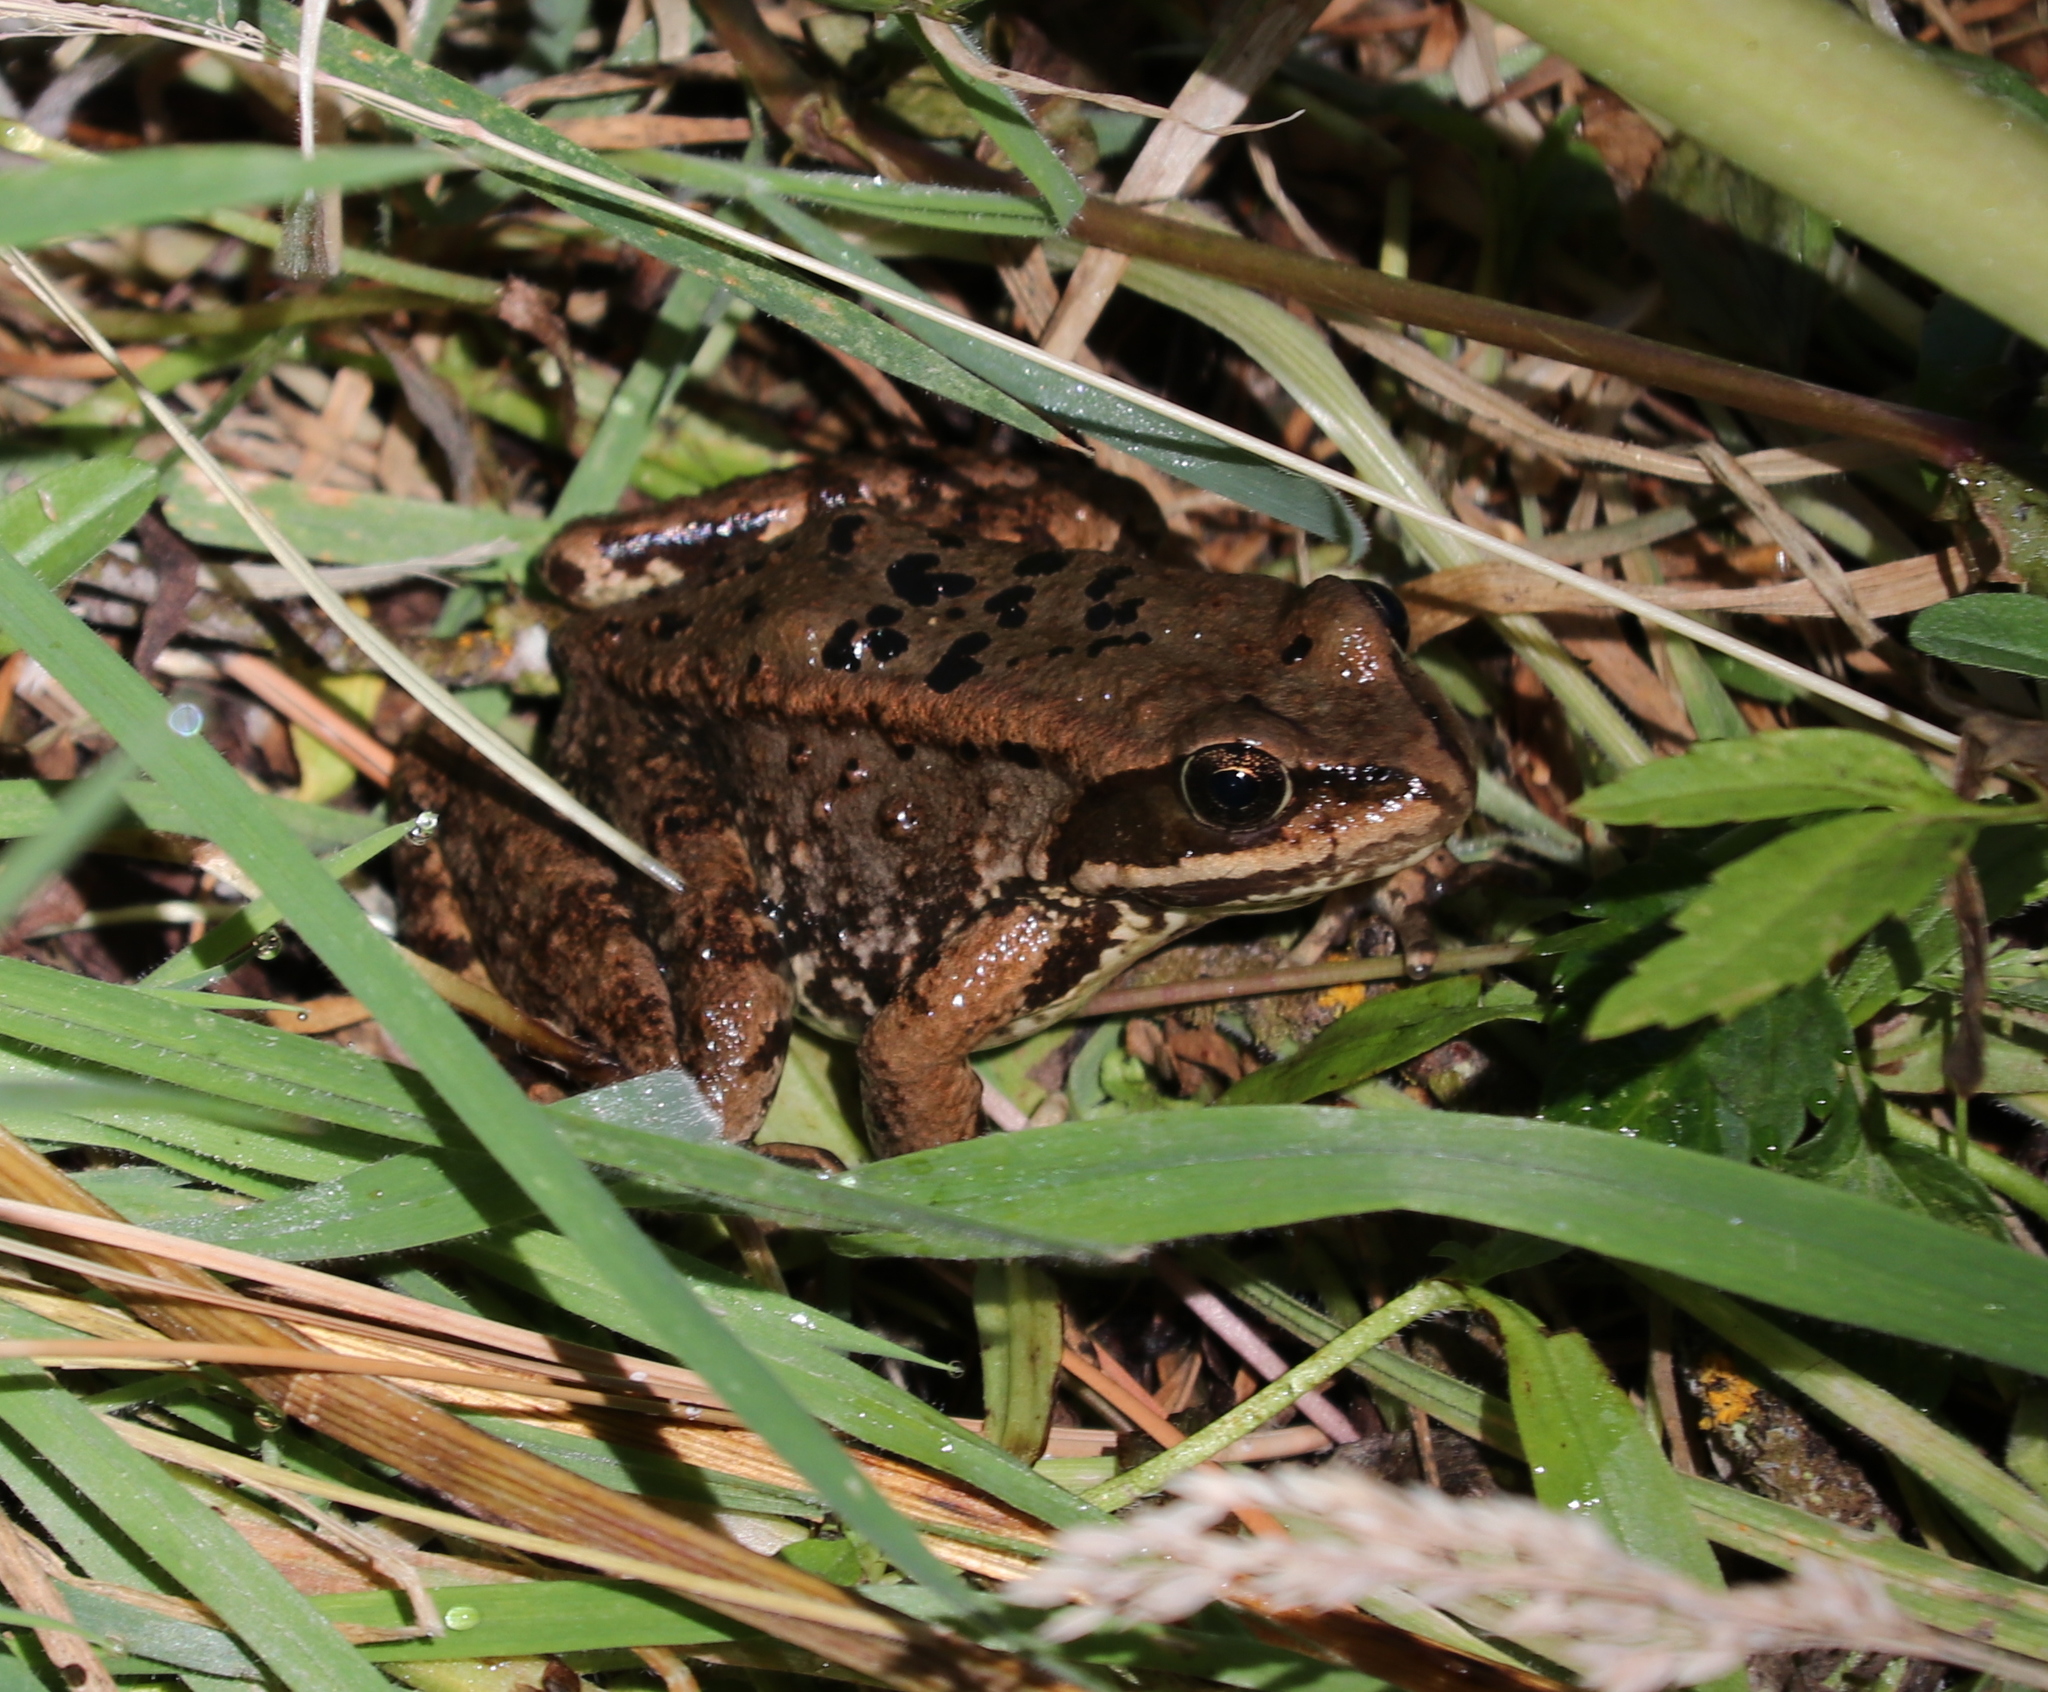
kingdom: Animalia
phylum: Chordata
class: Amphibia
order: Anura
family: Ranidae
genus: Rana
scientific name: Rana cascadae
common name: Cascades frog
